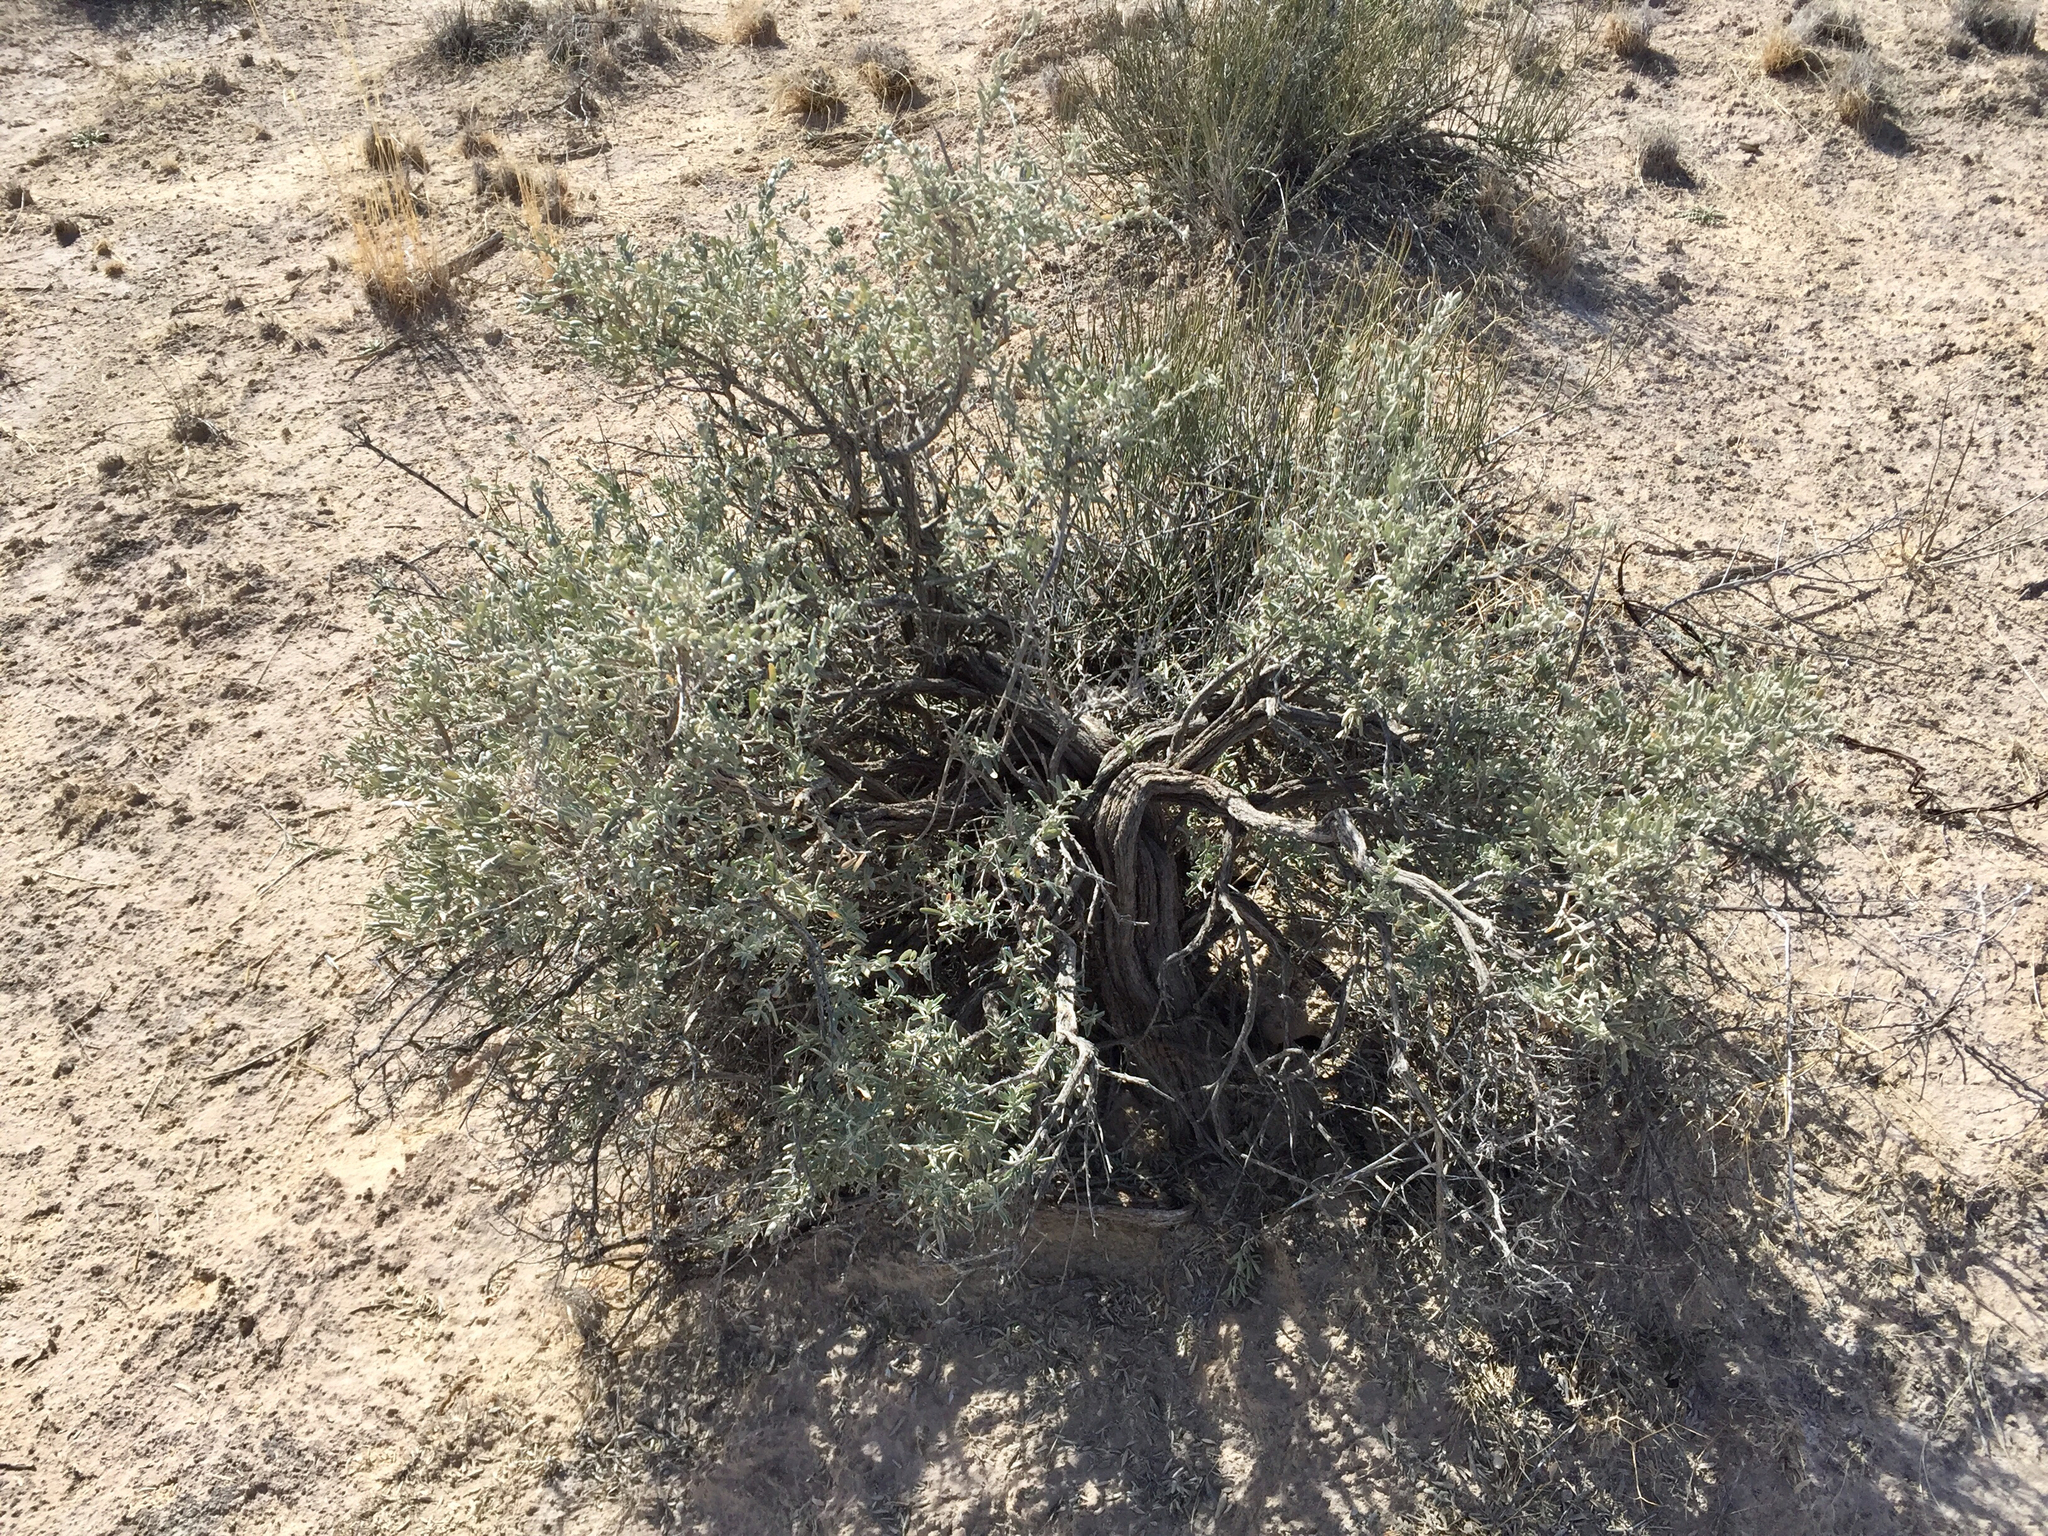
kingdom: Plantae
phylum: Tracheophyta
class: Magnoliopsida
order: Caryophyllales
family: Amaranthaceae
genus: Atriplex
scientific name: Atriplex canescens
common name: Four-wing saltbush
